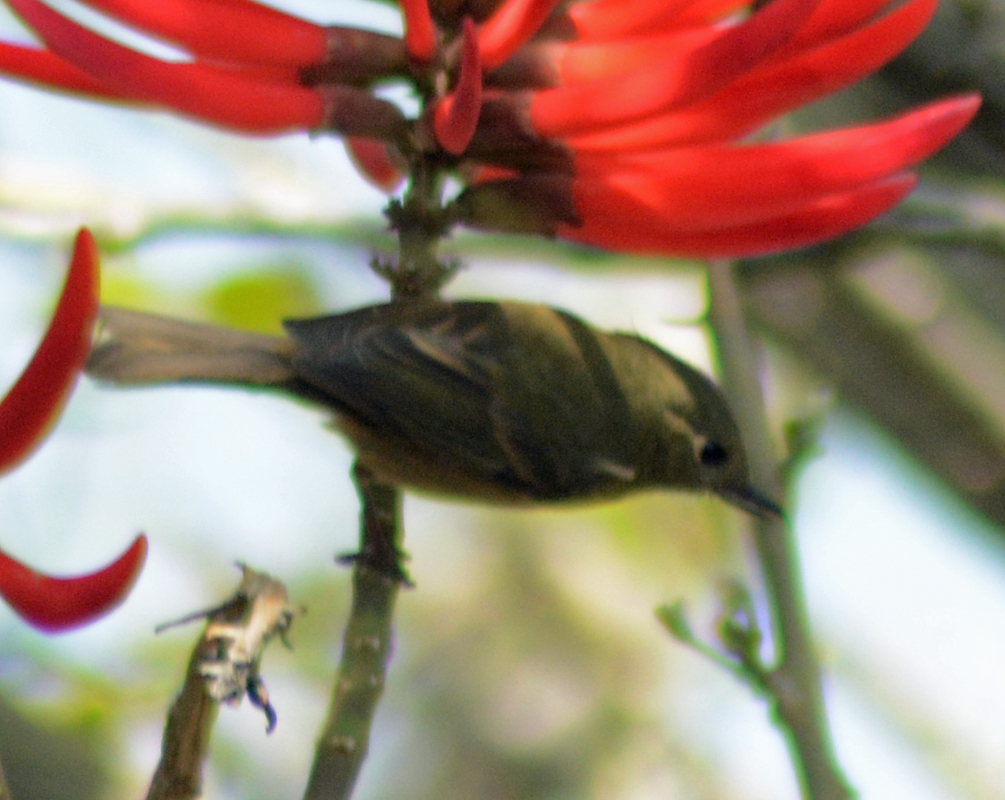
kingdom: Animalia
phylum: Chordata
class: Aves
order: Passeriformes
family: Thraupidae
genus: Diglossa
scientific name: Diglossa baritula
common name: Cinnamon-bellied flowerpiercer
